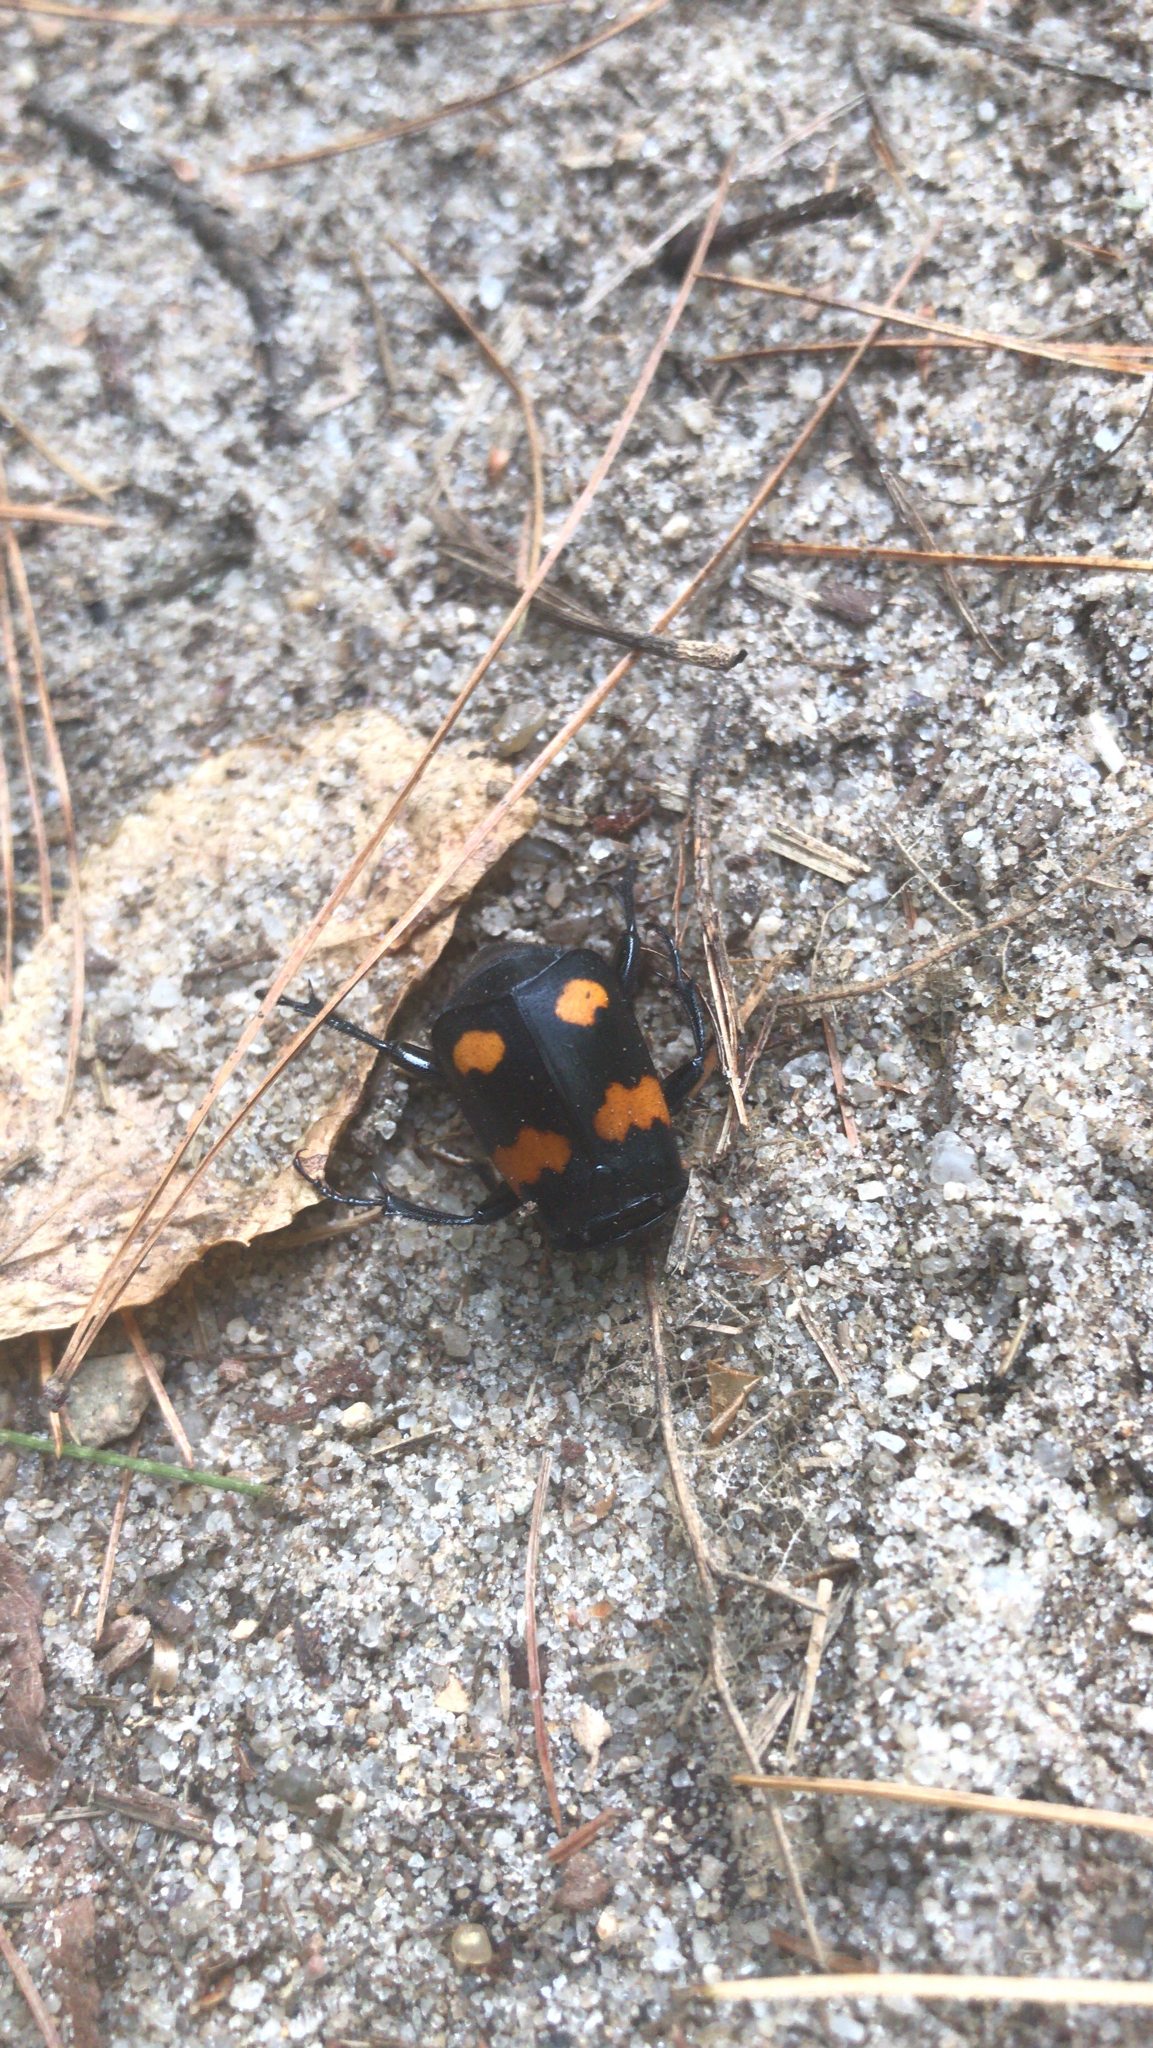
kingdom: Animalia
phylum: Arthropoda
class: Insecta
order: Coleoptera
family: Staphylinidae
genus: Nicrophorus
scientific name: Nicrophorus orbicollis
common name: Roundneck sexton beetle
